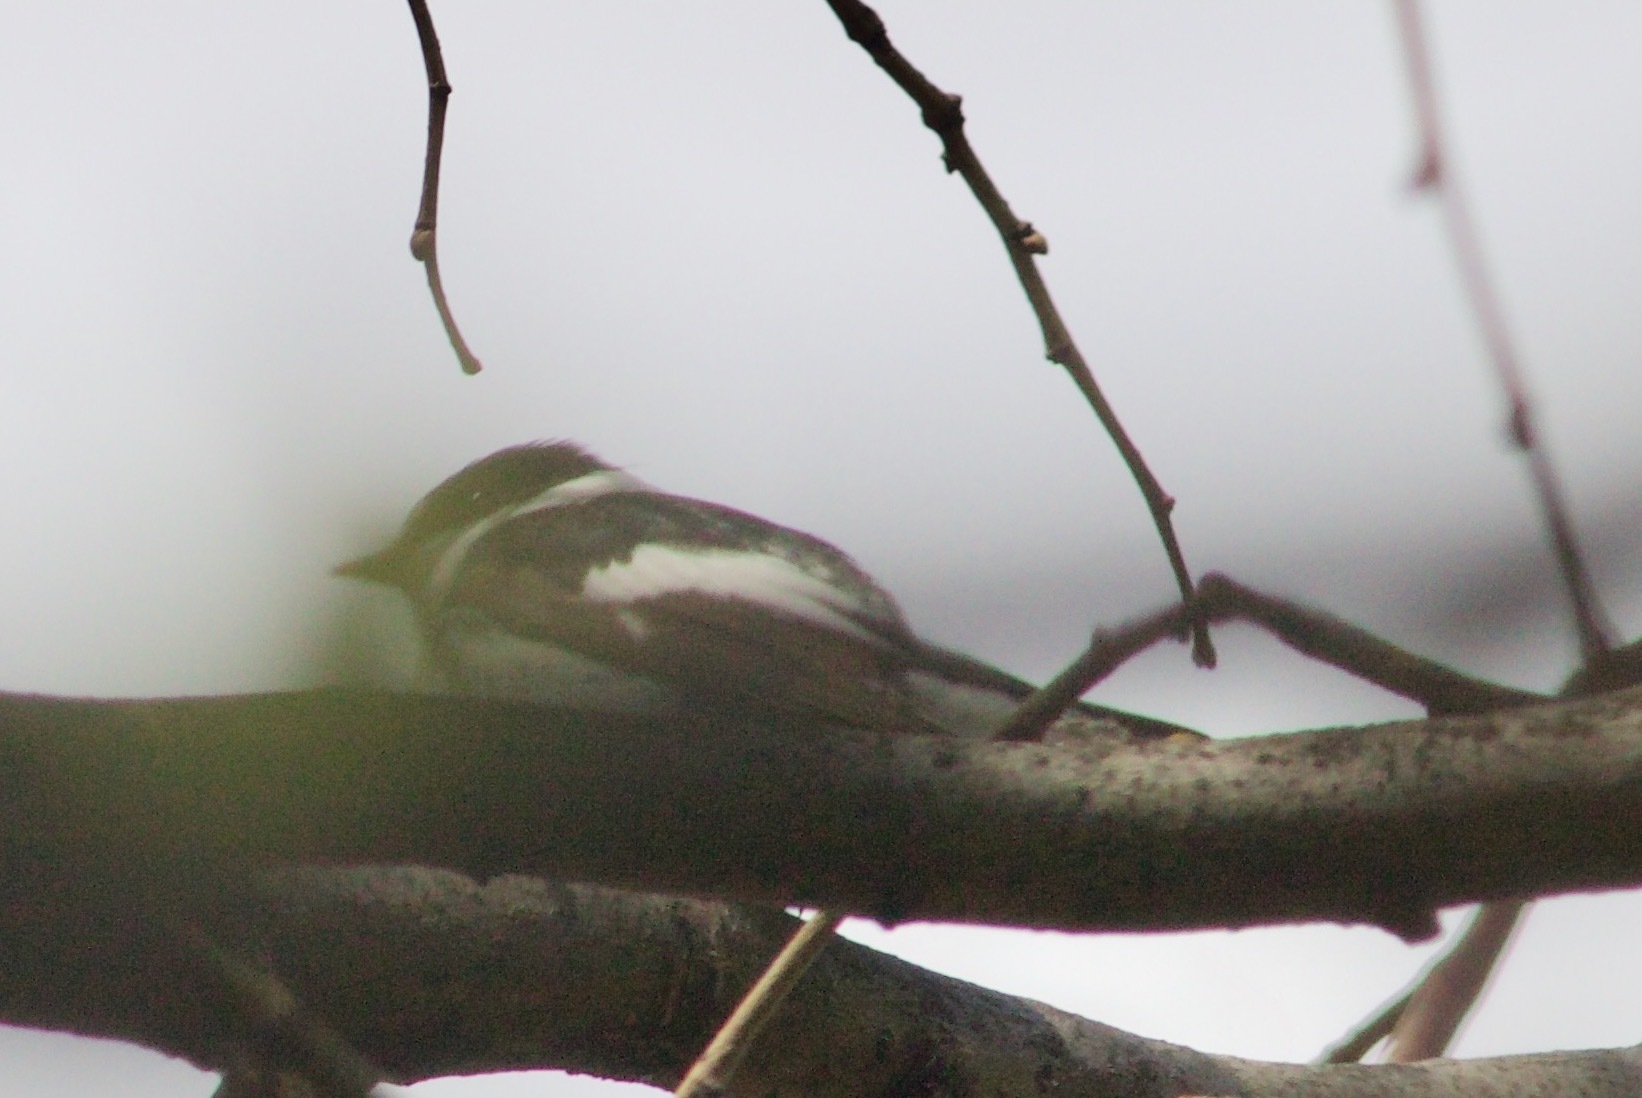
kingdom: Animalia
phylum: Chordata
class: Aves
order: Passeriformes
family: Muscicapidae
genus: Ficedula
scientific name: Ficedula albicollis
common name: Collared flycatcher
